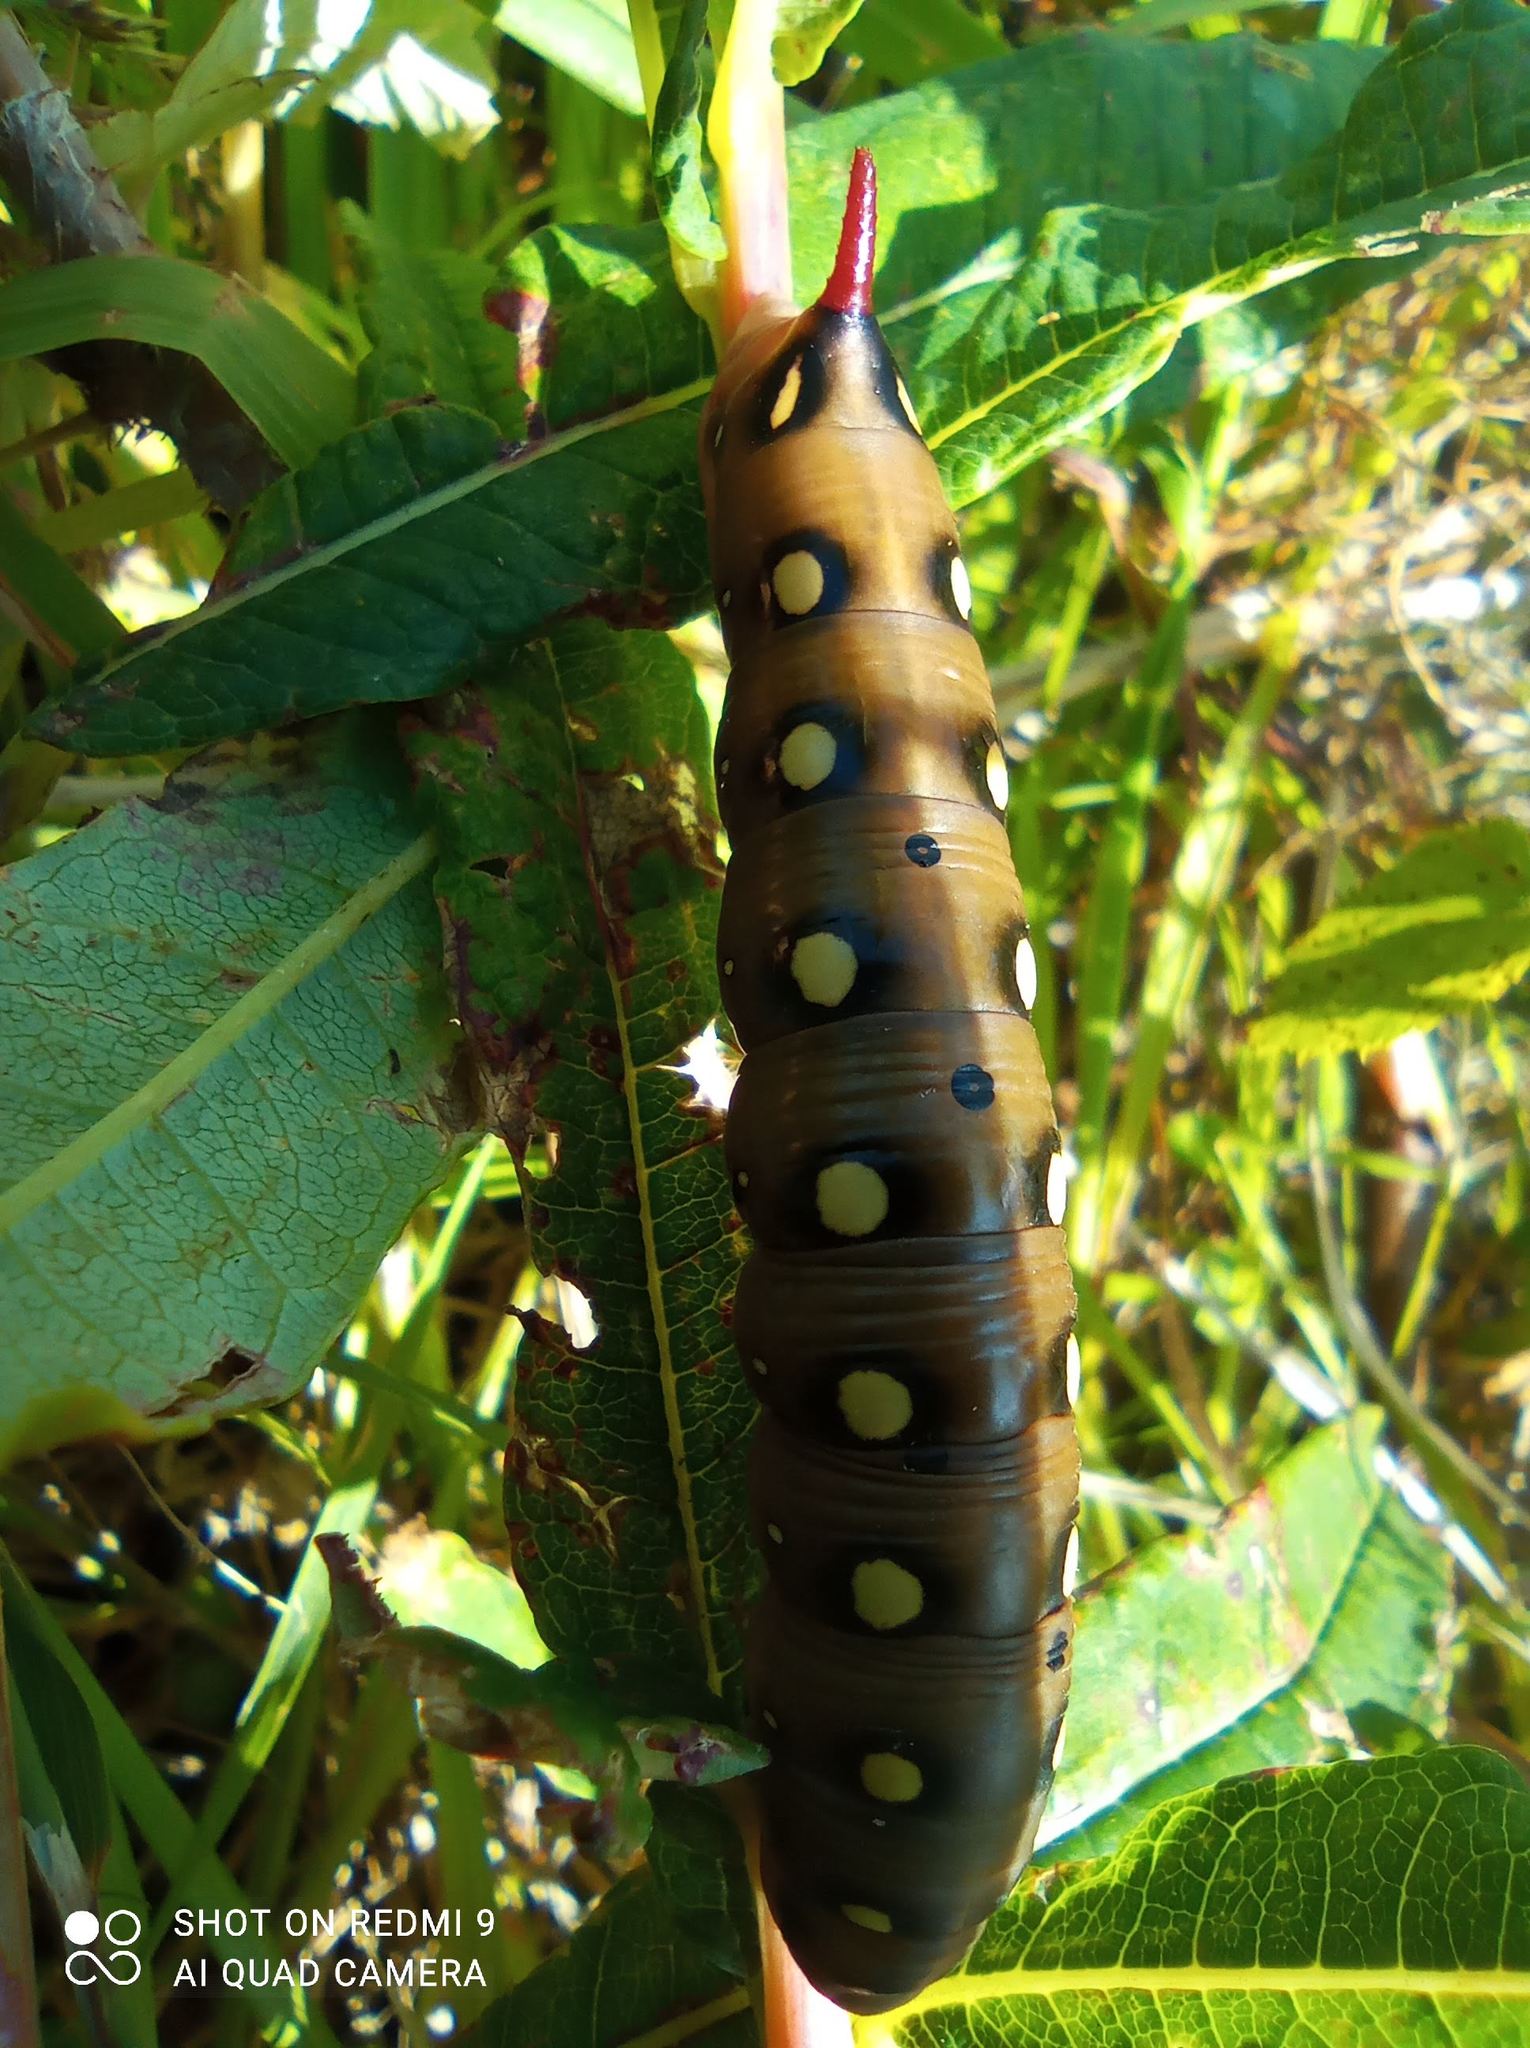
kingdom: Animalia
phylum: Arthropoda
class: Insecta
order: Lepidoptera
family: Sphingidae
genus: Hyles
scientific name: Hyles gallii
